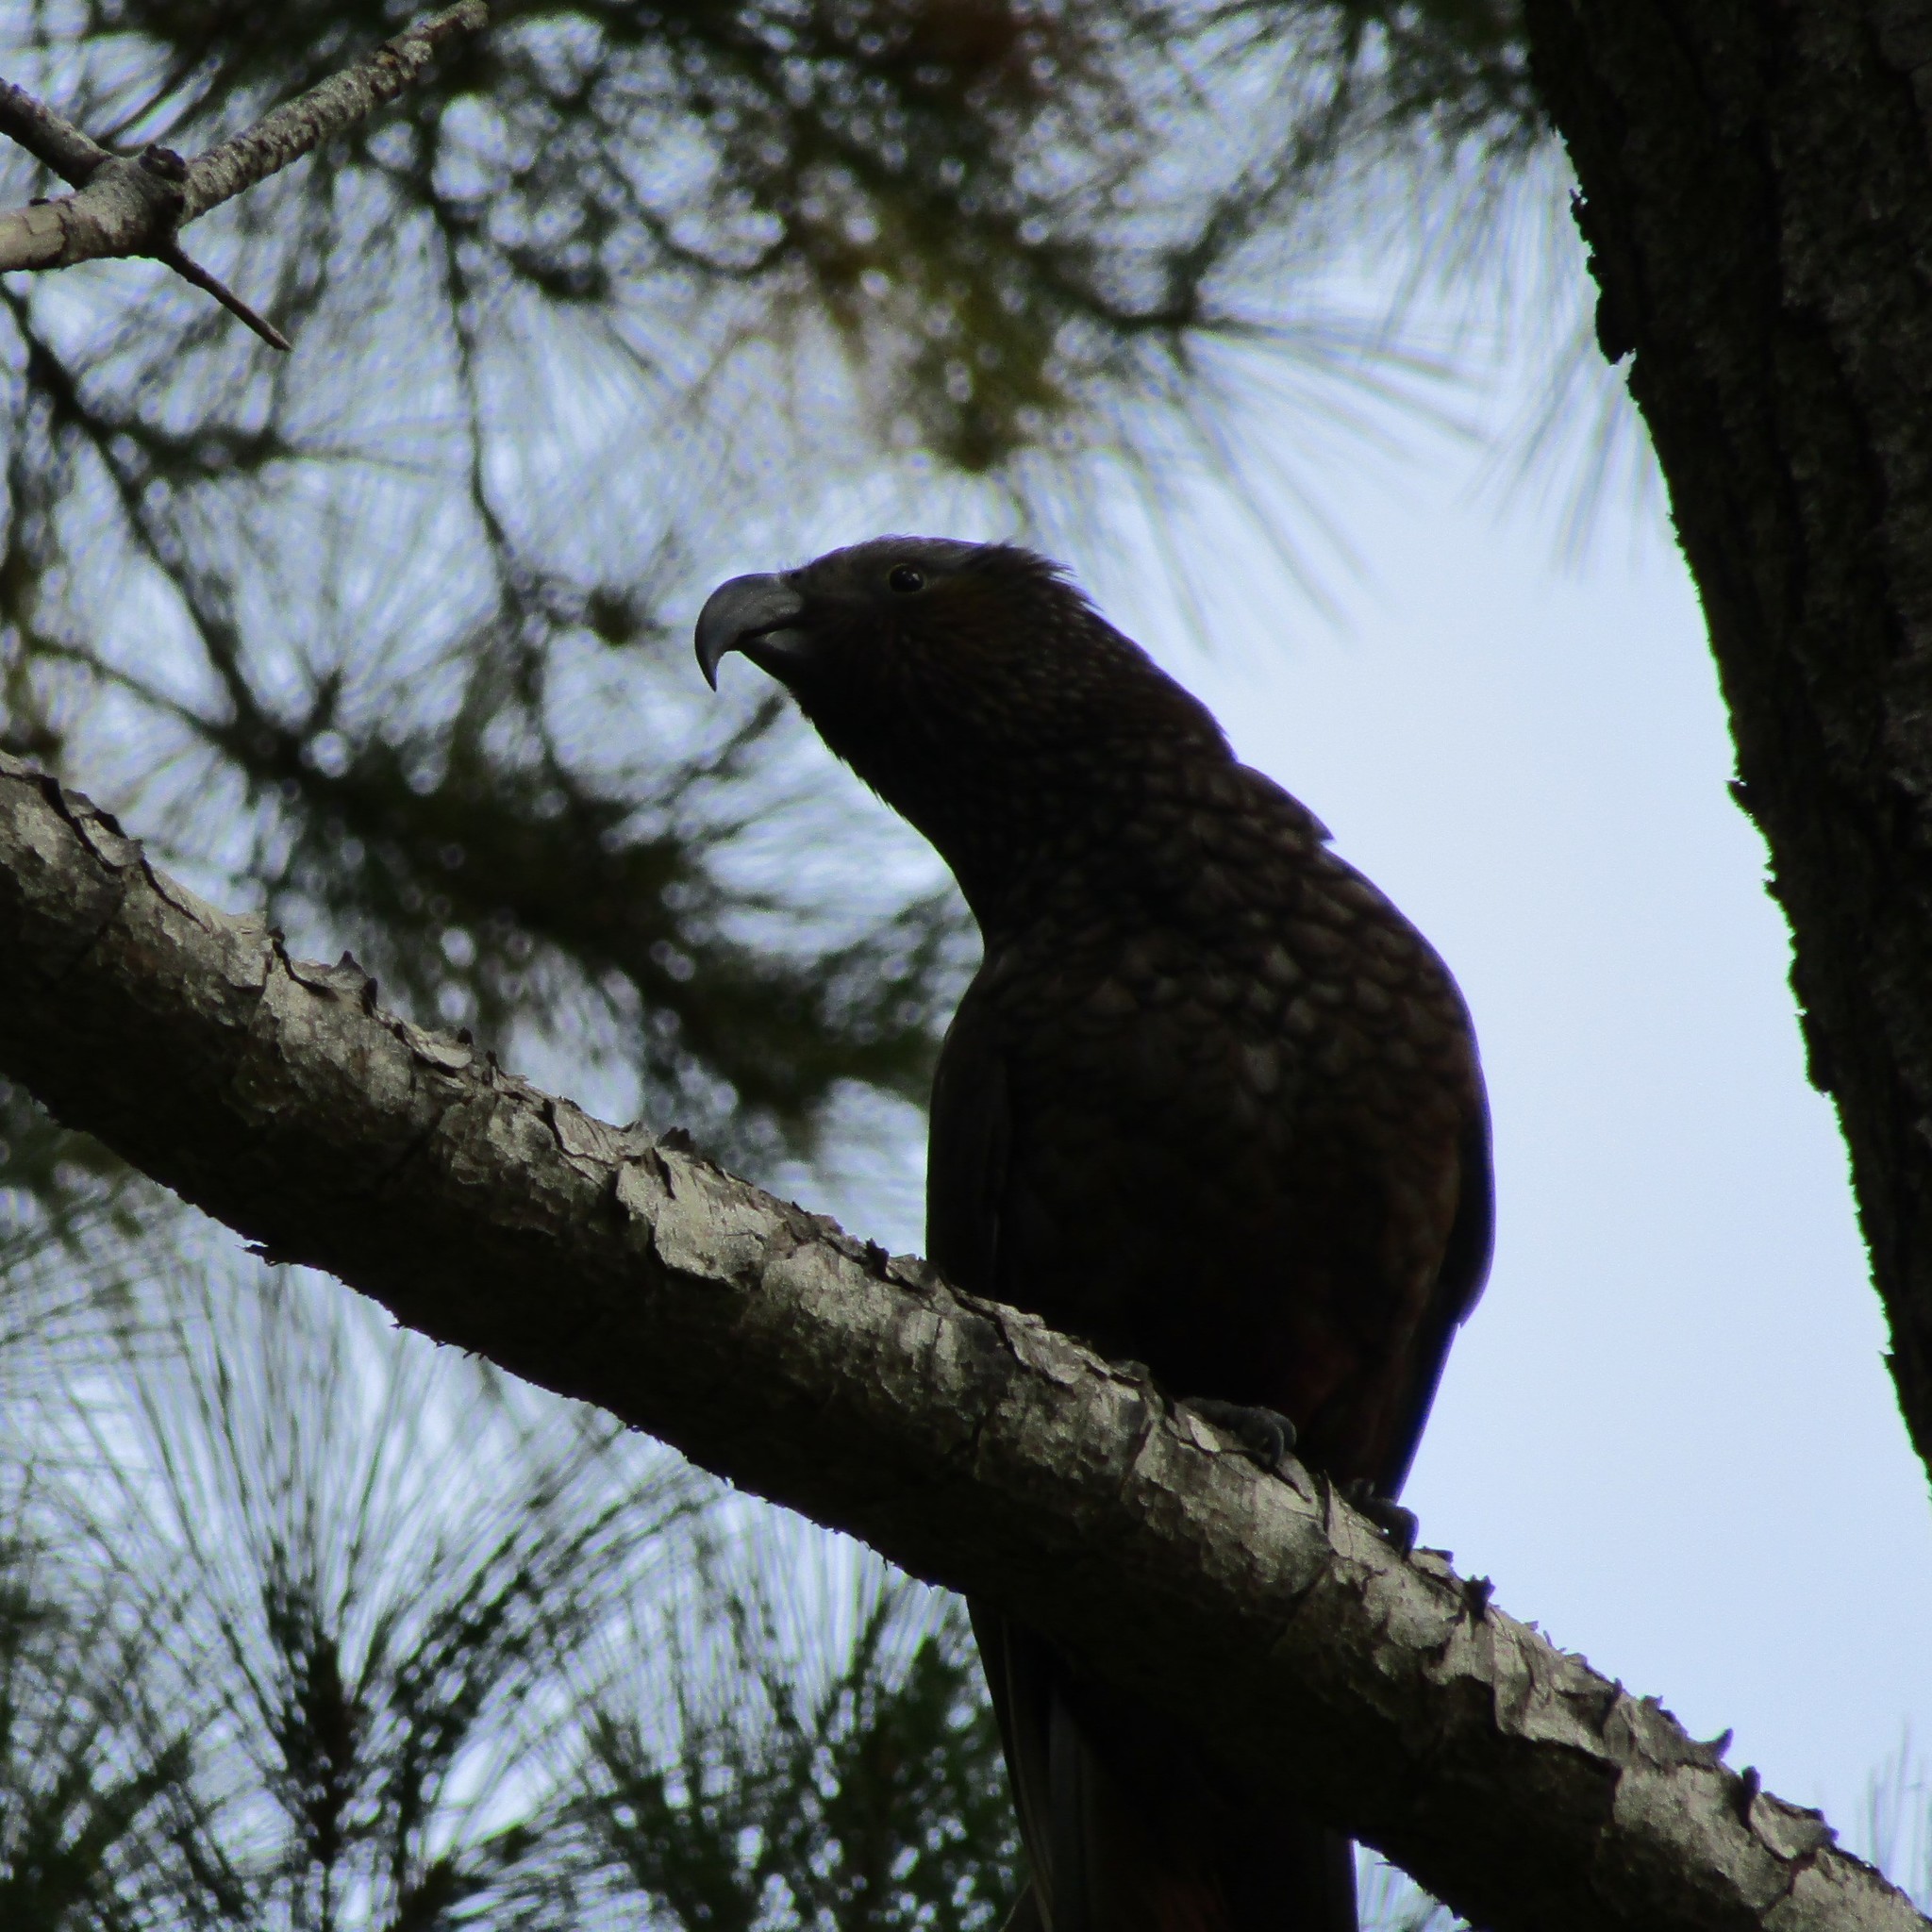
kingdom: Animalia
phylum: Chordata
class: Aves
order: Psittaciformes
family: Psittacidae
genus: Nestor
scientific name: Nestor meridionalis
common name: New zealand kaka
